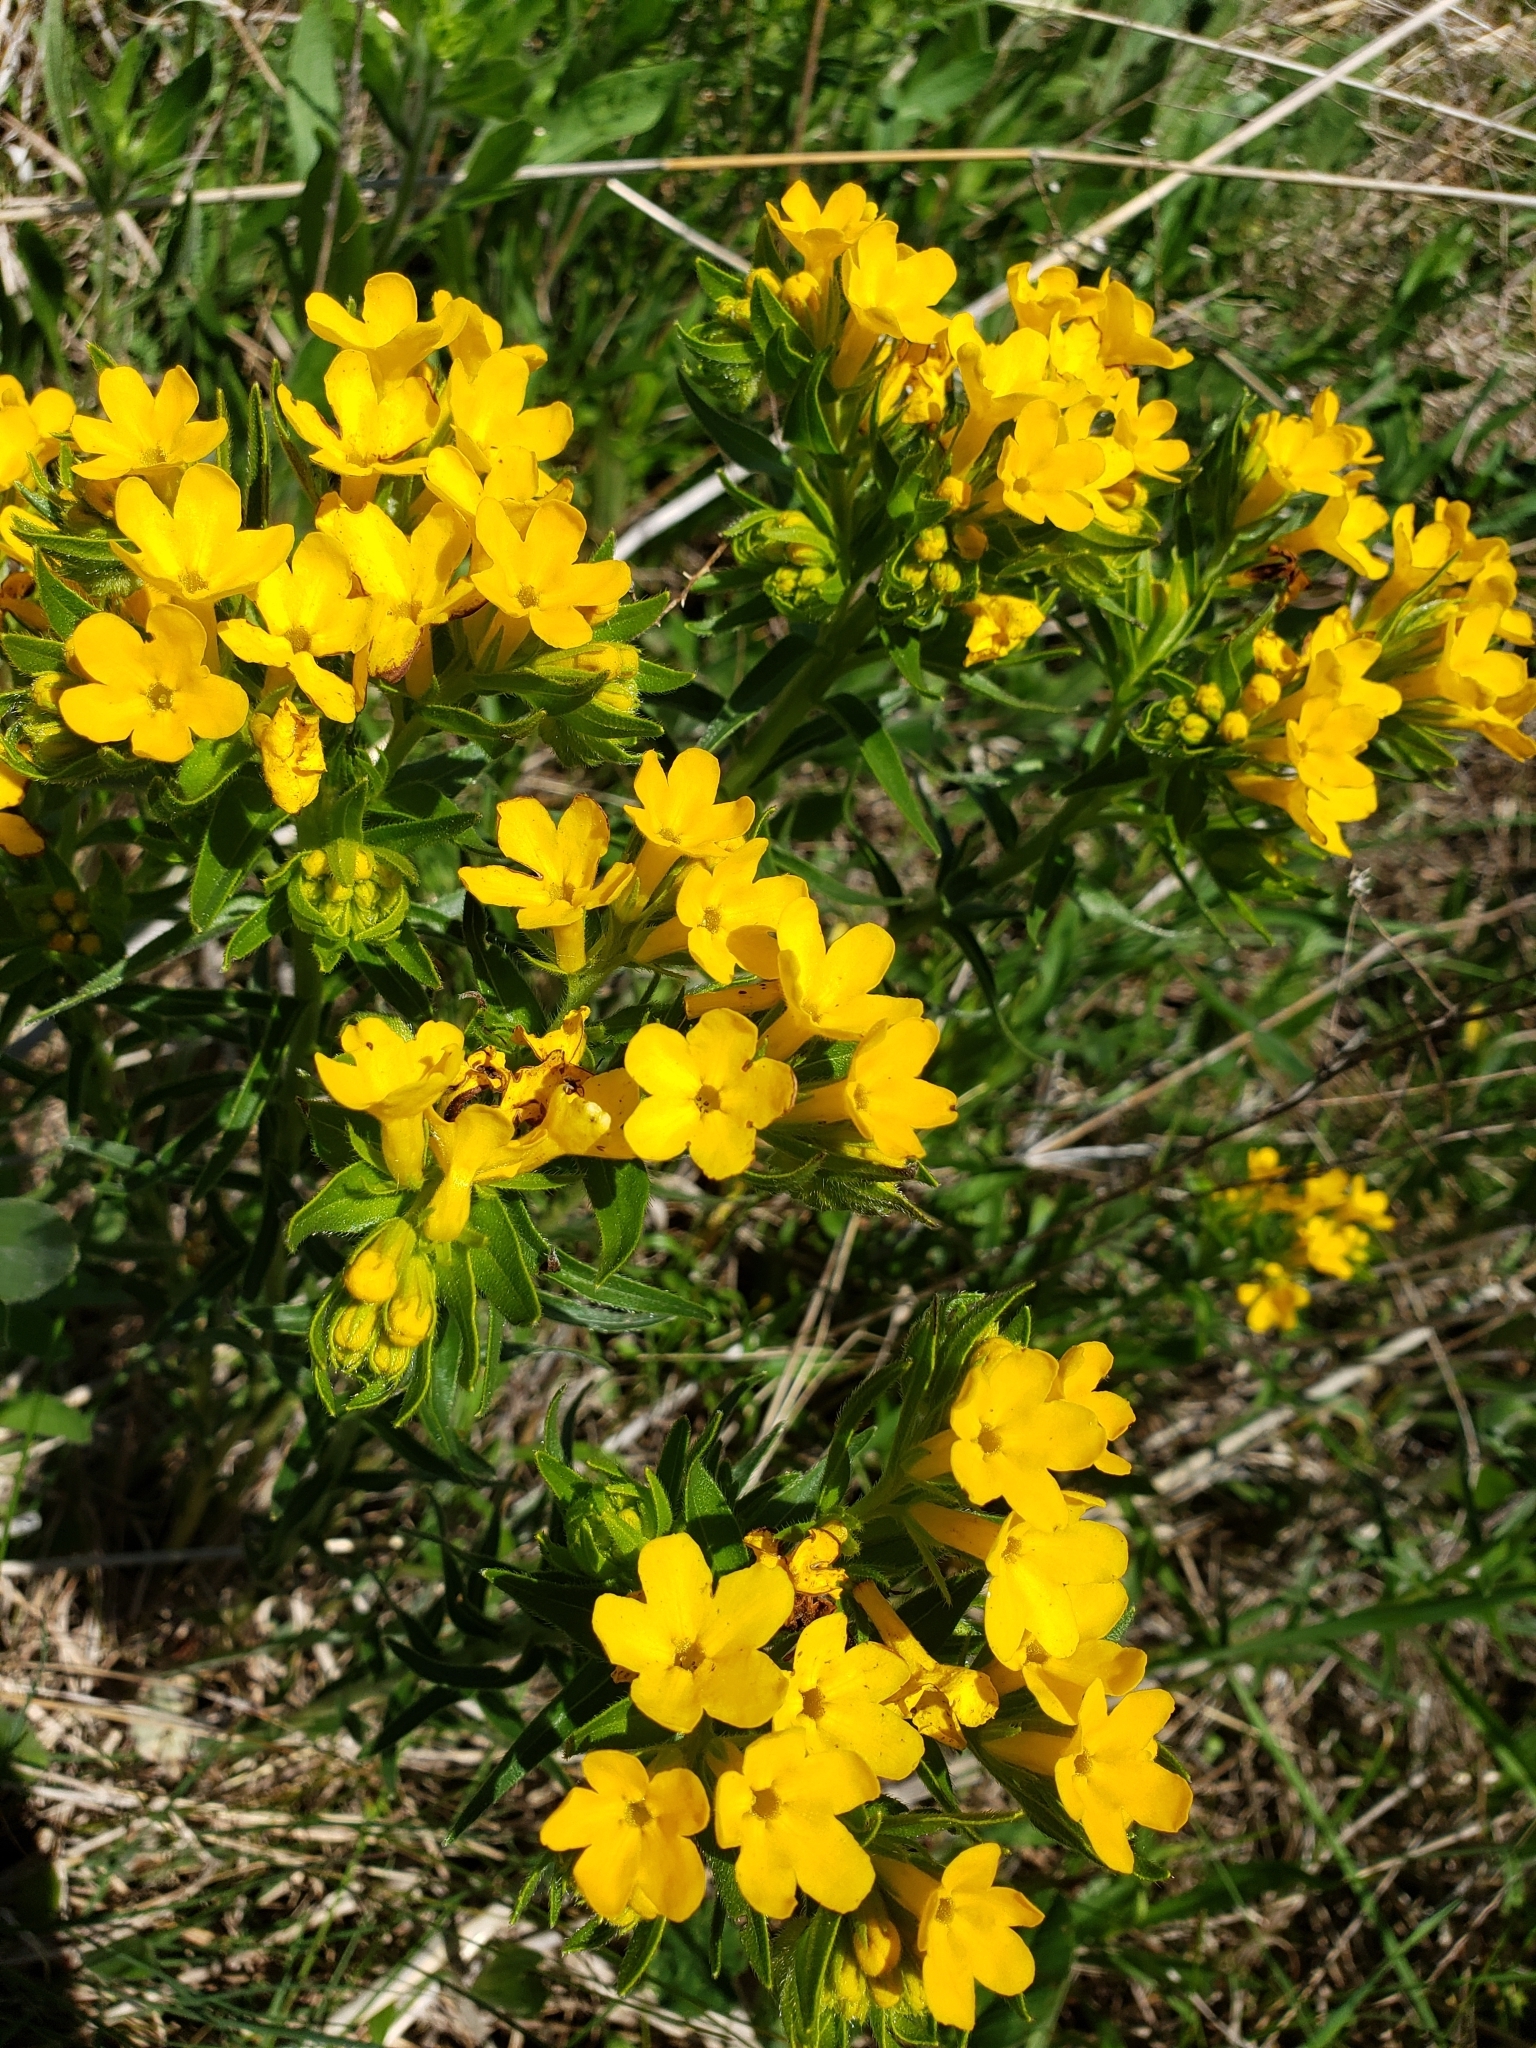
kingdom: Plantae
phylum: Tracheophyta
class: Magnoliopsida
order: Boraginales
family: Boraginaceae
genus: Lithospermum
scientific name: Lithospermum caroliniense
